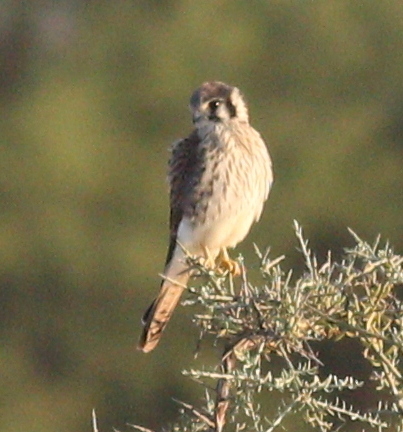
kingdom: Animalia
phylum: Chordata
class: Aves
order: Falconiformes
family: Falconidae
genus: Falco
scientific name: Falco sparverius
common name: American kestrel
